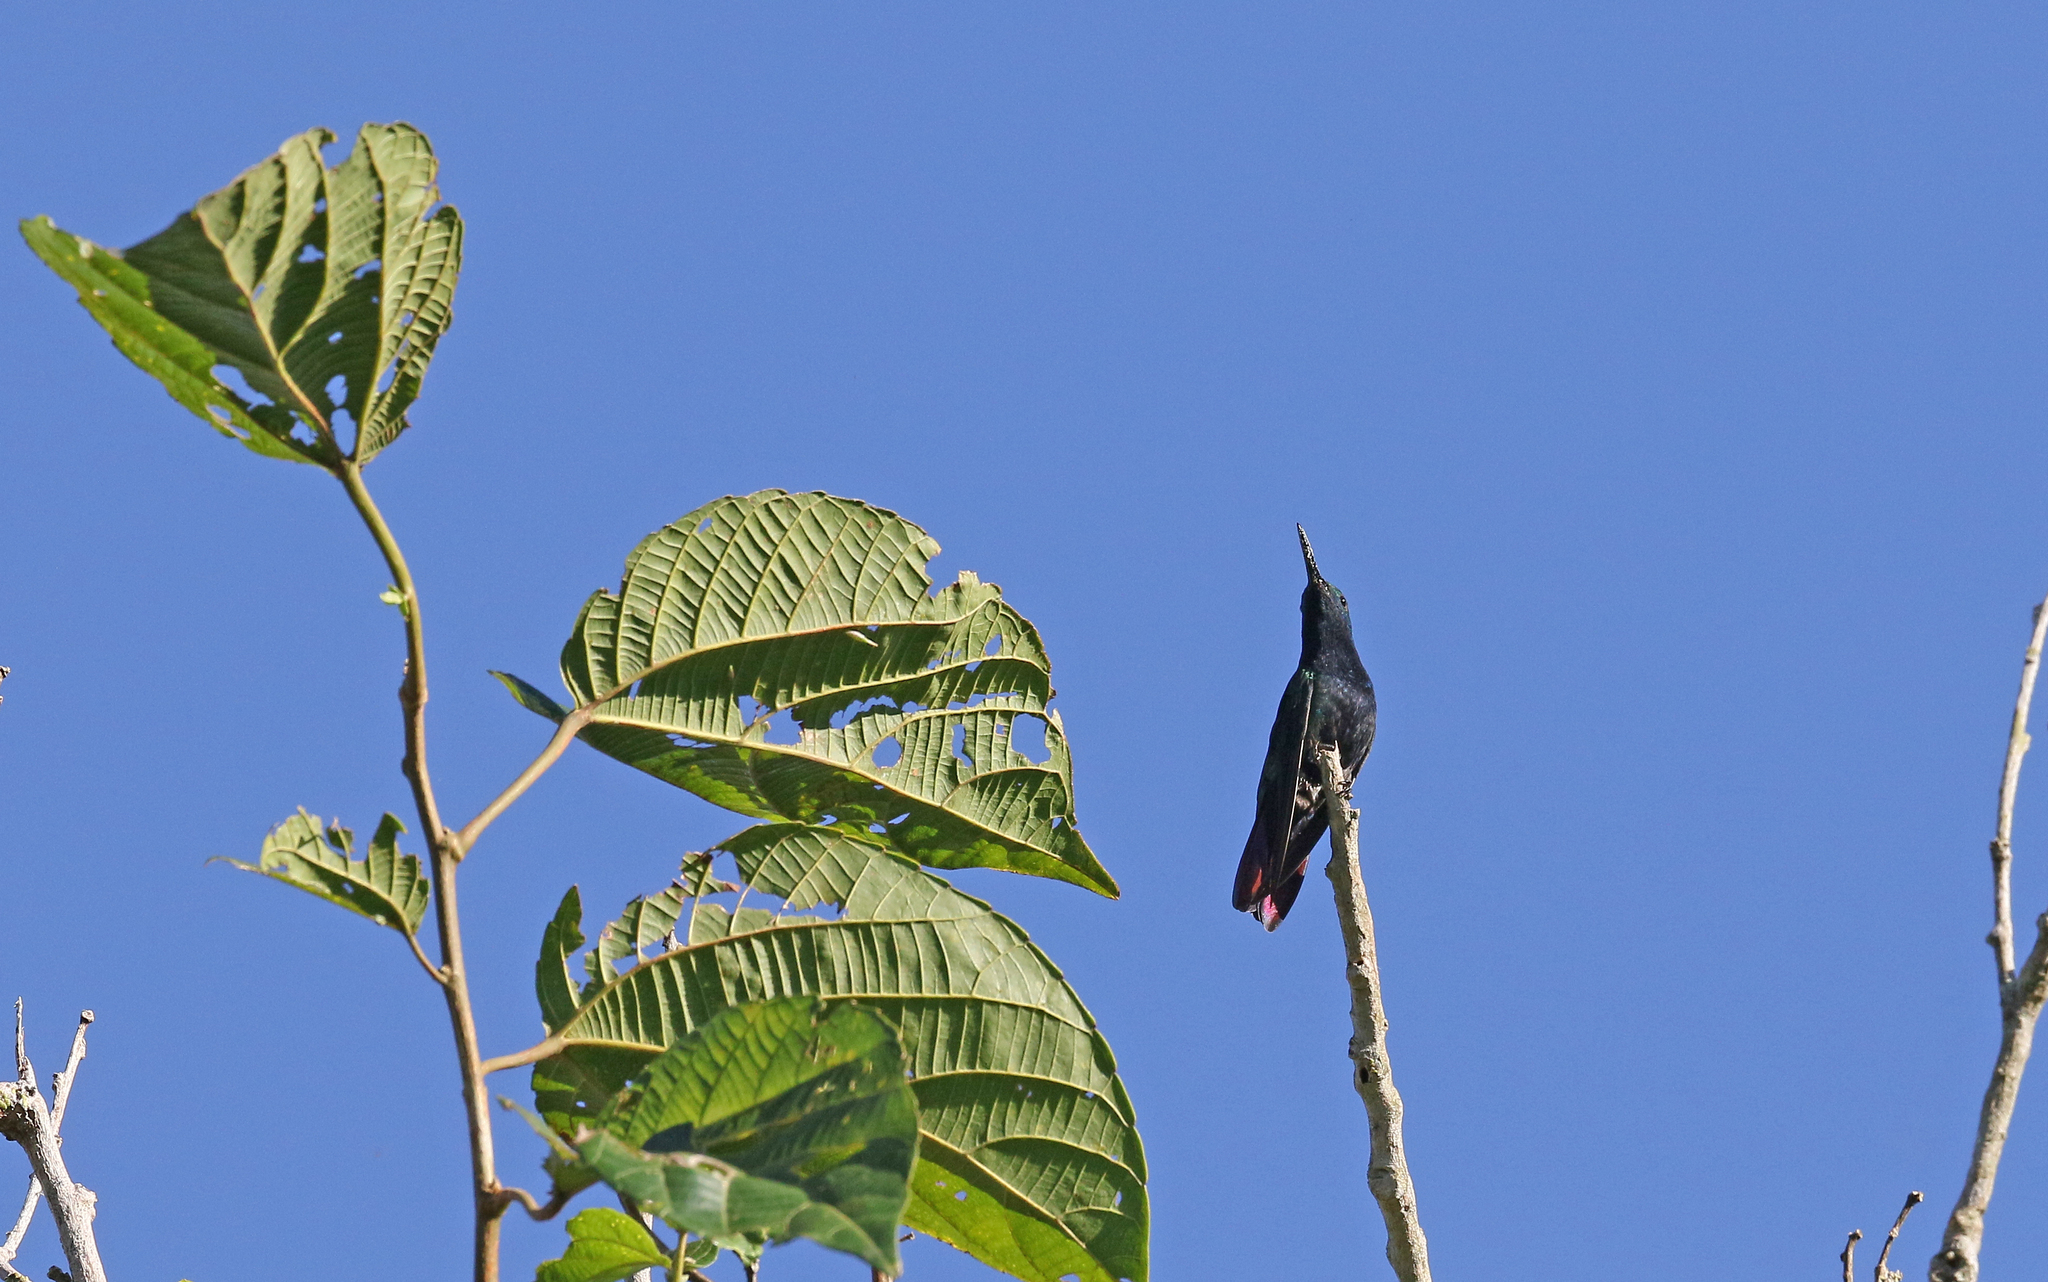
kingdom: Animalia
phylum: Chordata
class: Aves
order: Apodiformes
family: Trochilidae
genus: Anthracothorax
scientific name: Anthracothorax nigricollis
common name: Black-throated mango
